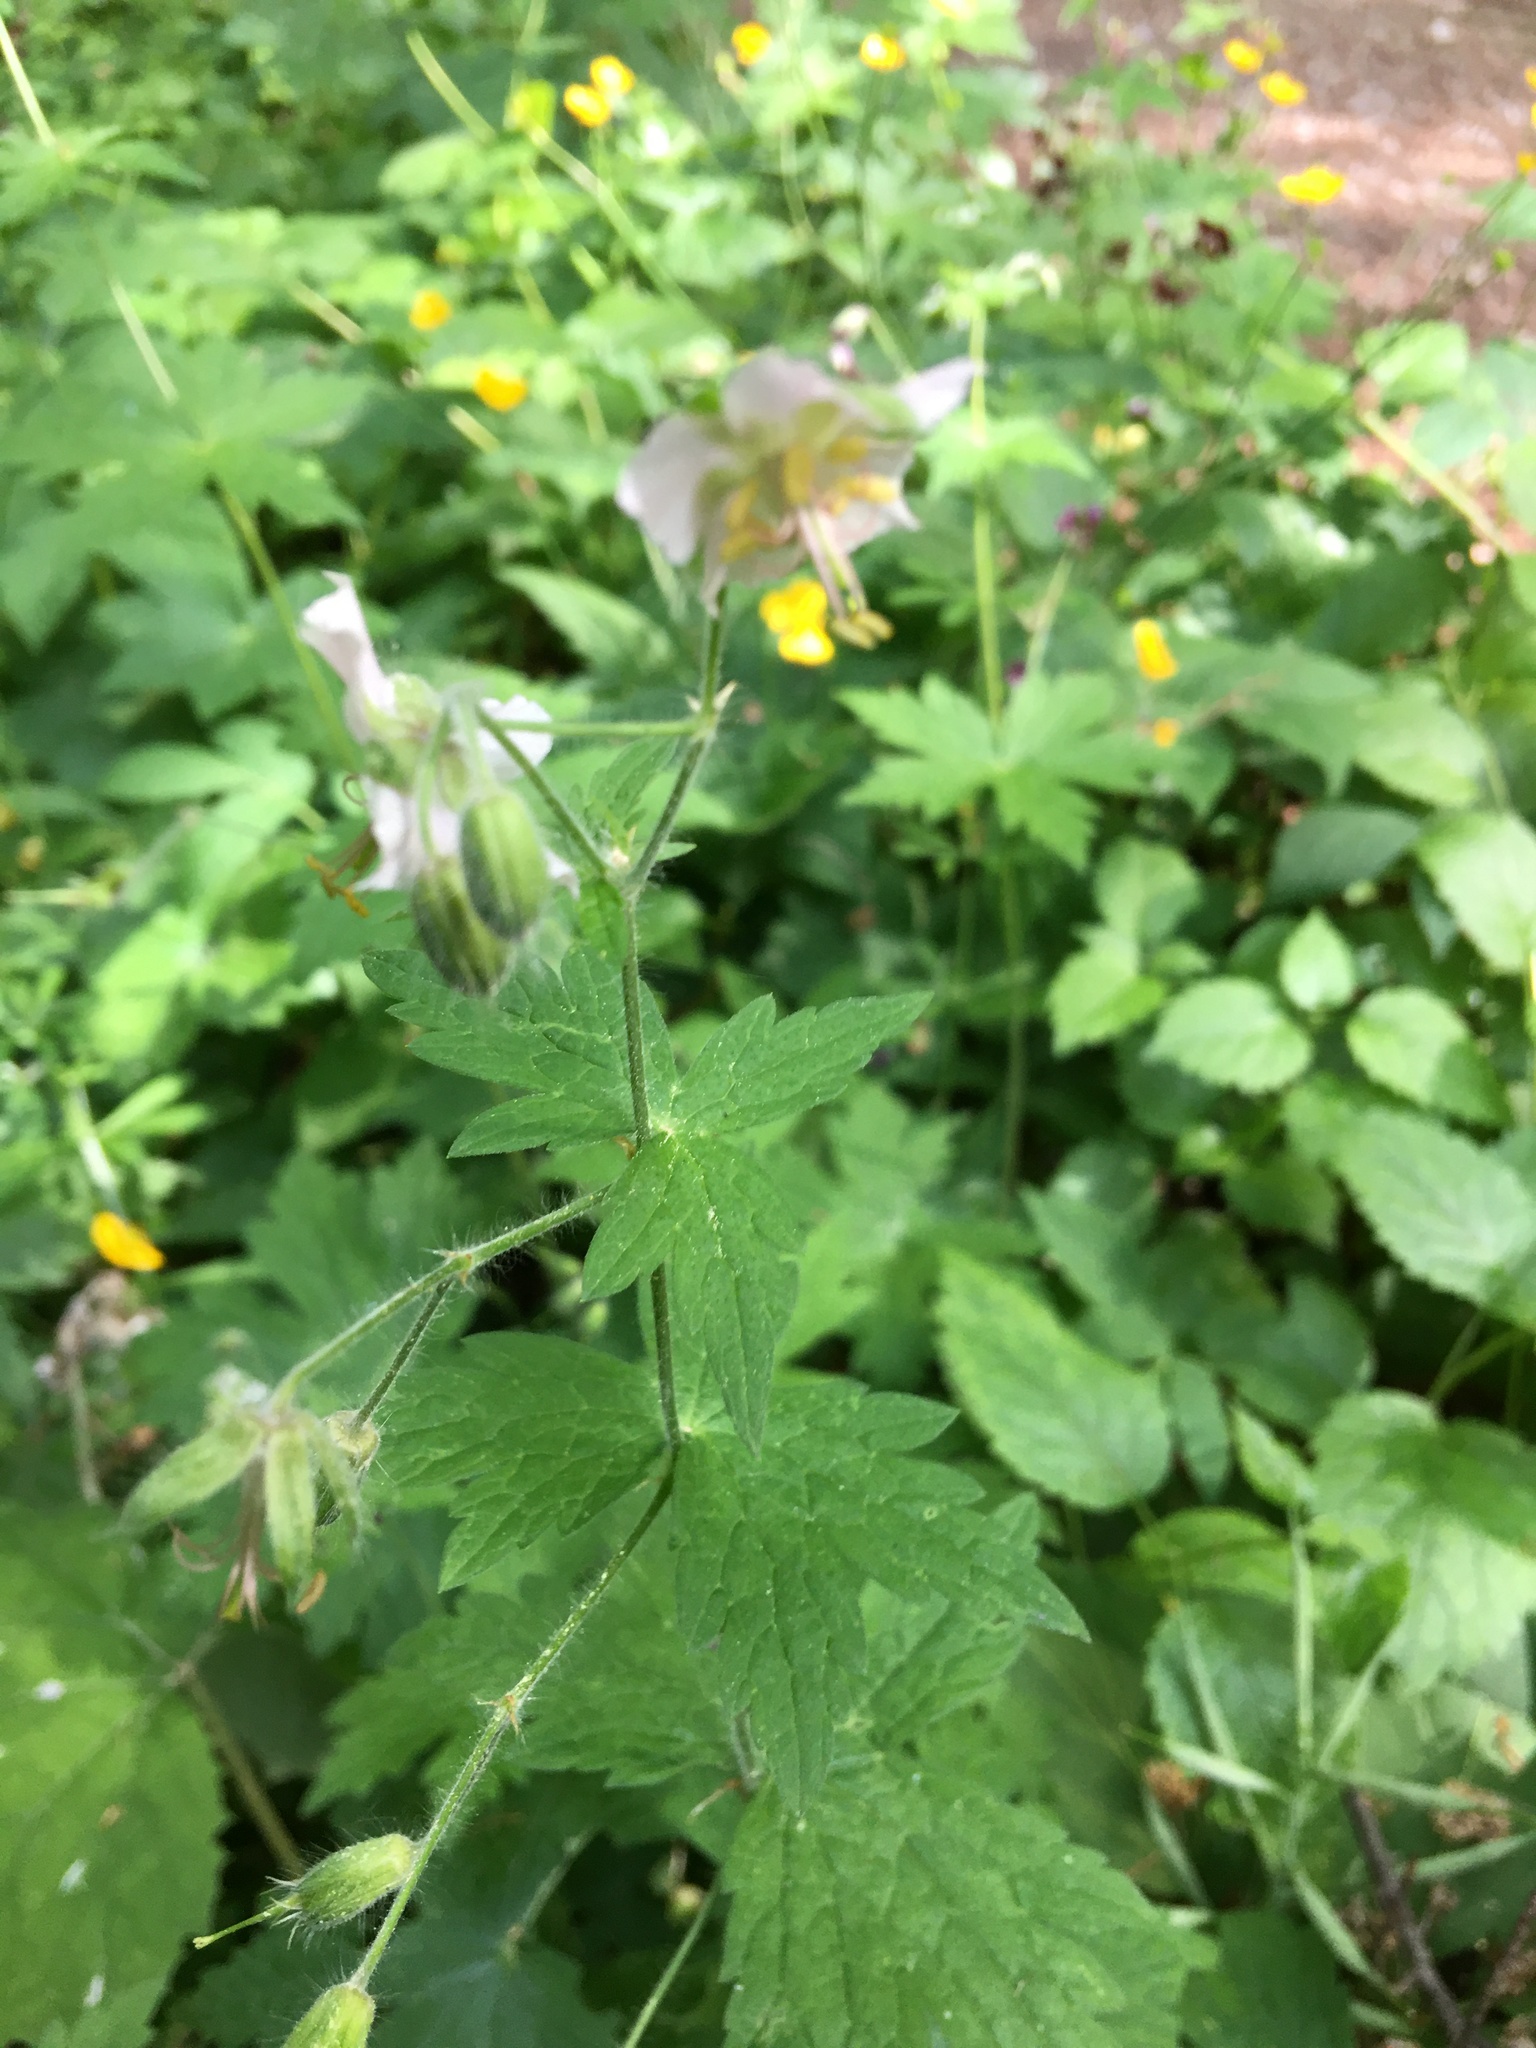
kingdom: Plantae
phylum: Tracheophyta
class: Magnoliopsida
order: Geraniales
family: Geraniaceae
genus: Geranium
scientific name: Geranium phaeum
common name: Dusky crane's-bill
